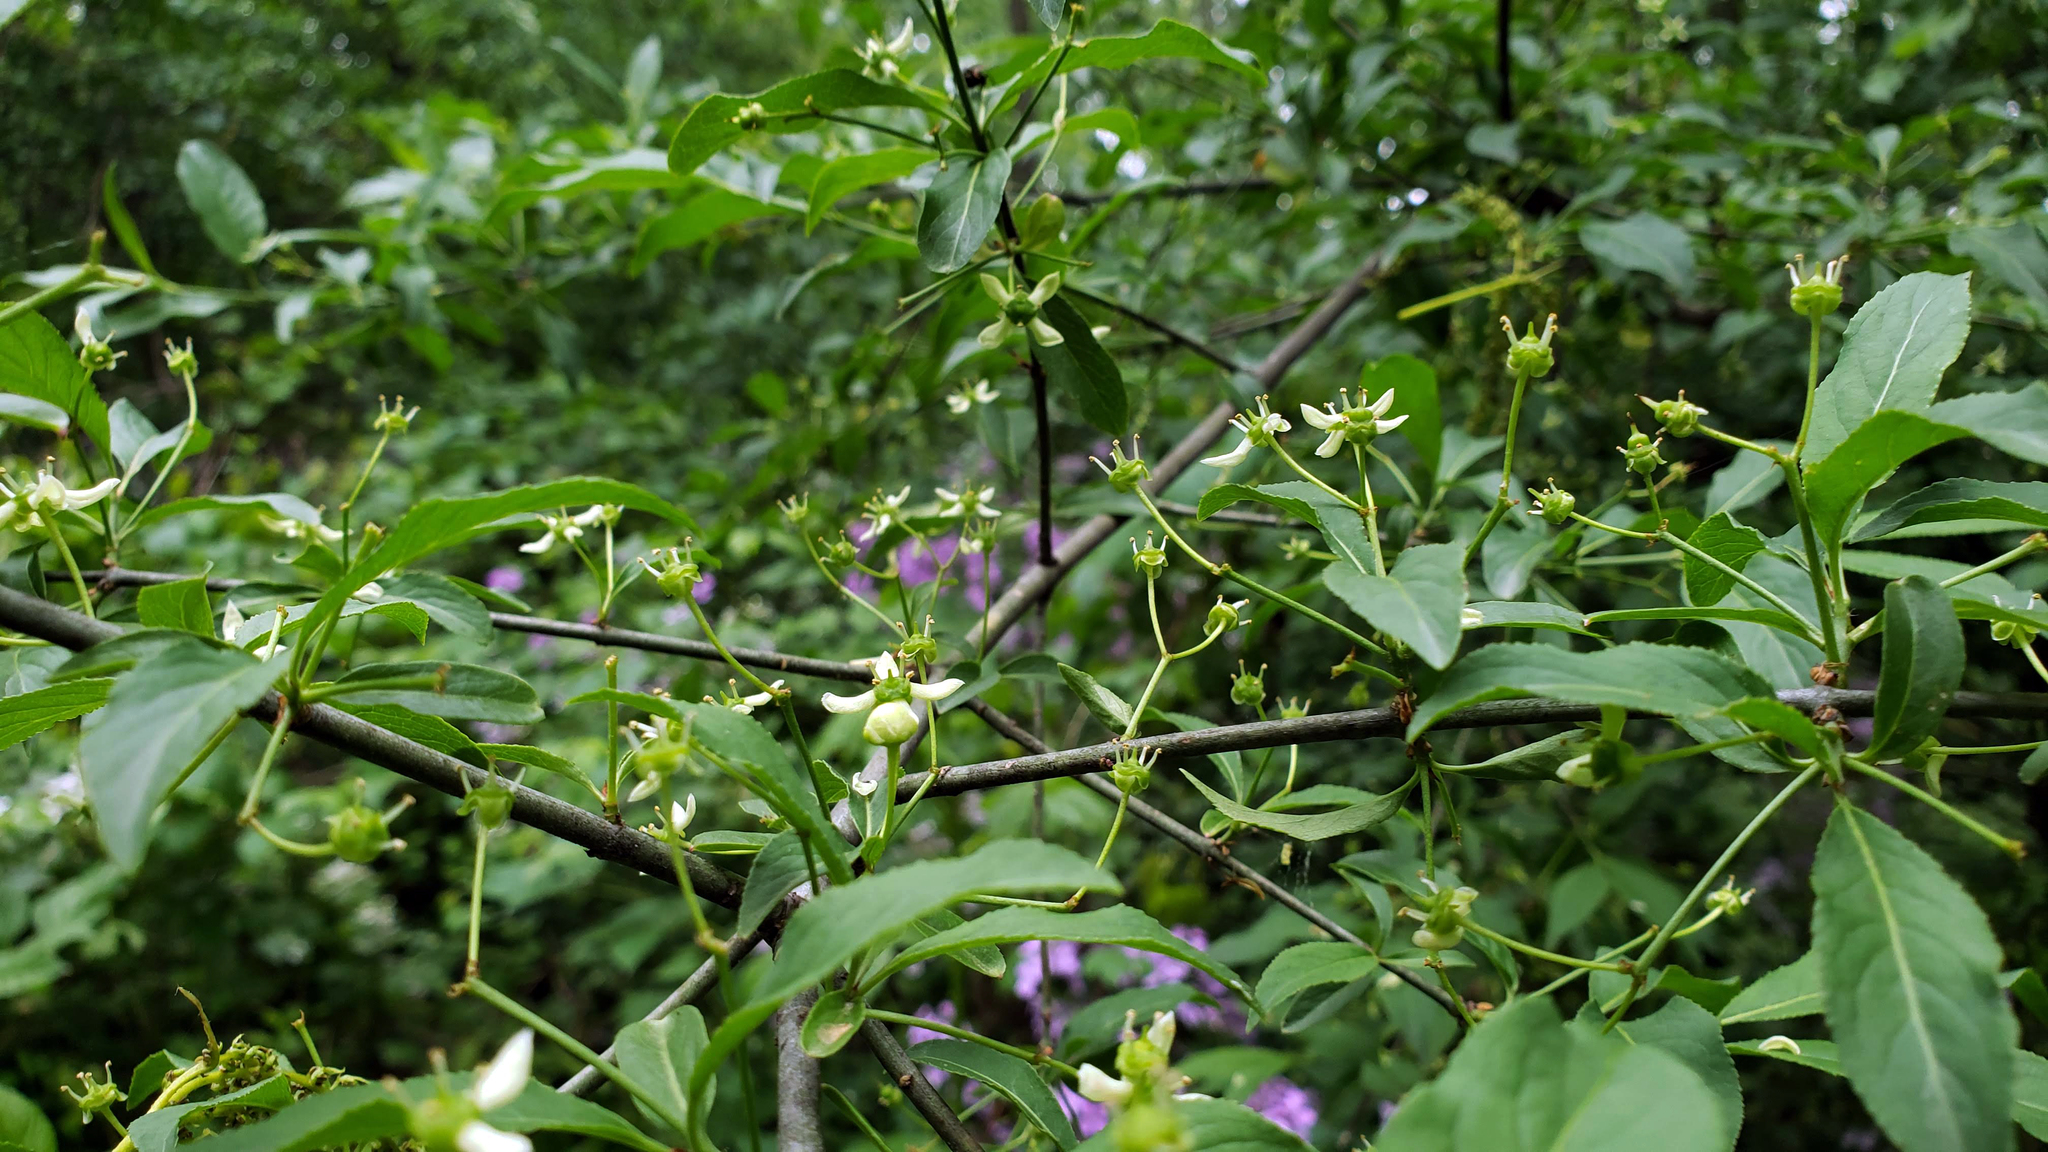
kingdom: Plantae
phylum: Tracheophyta
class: Magnoliopsida
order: Celastrales
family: Celastraceae
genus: Euonymus
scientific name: Euonymus europaeus
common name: Spindle
